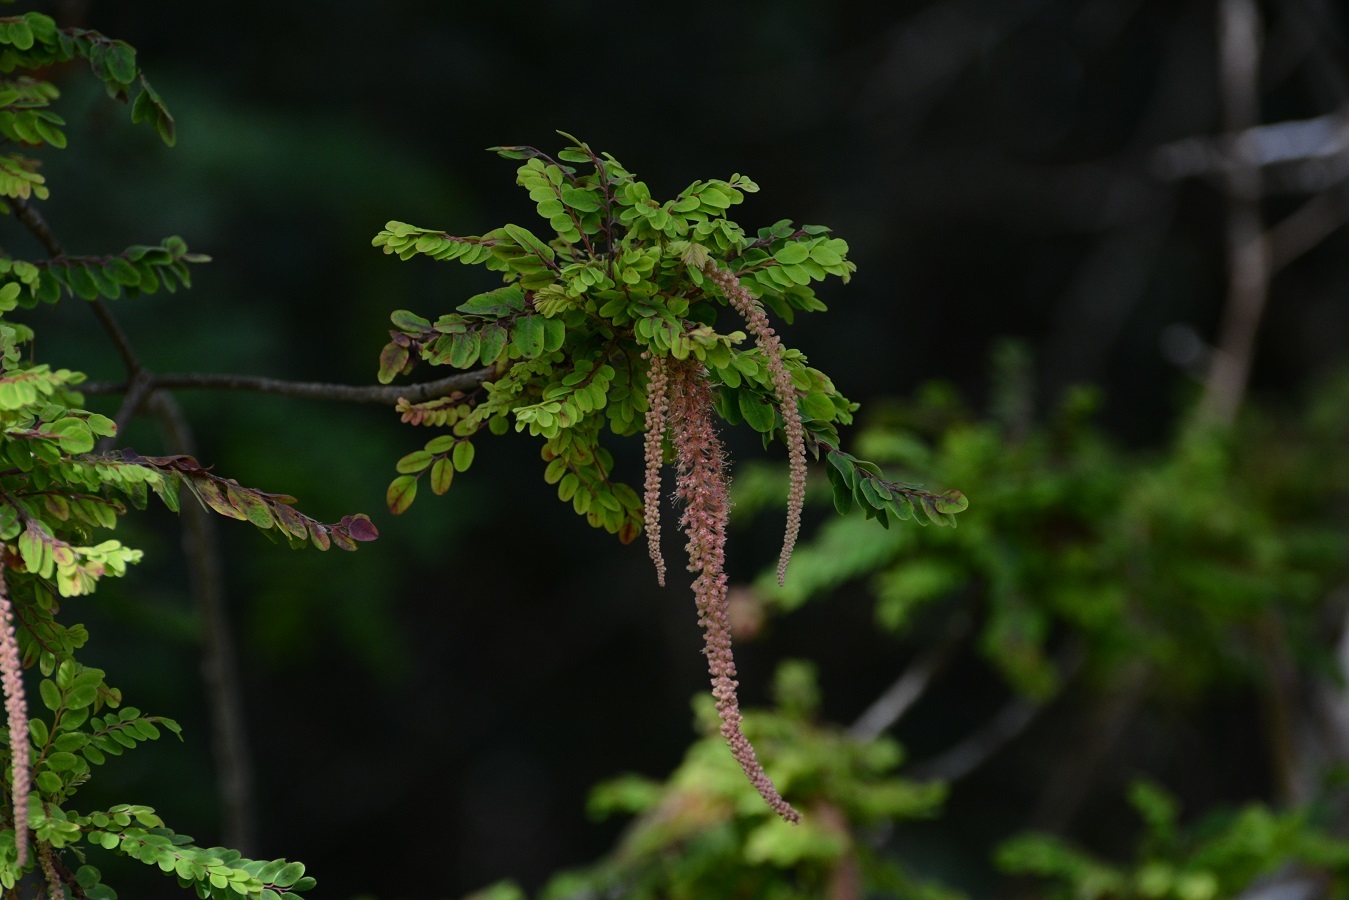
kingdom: Plantae
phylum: Tracheophyta
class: Magnoliopsida
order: Picramniales
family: Picramniaceae
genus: Alvaradoa
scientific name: Alvaradoa amorphoides
